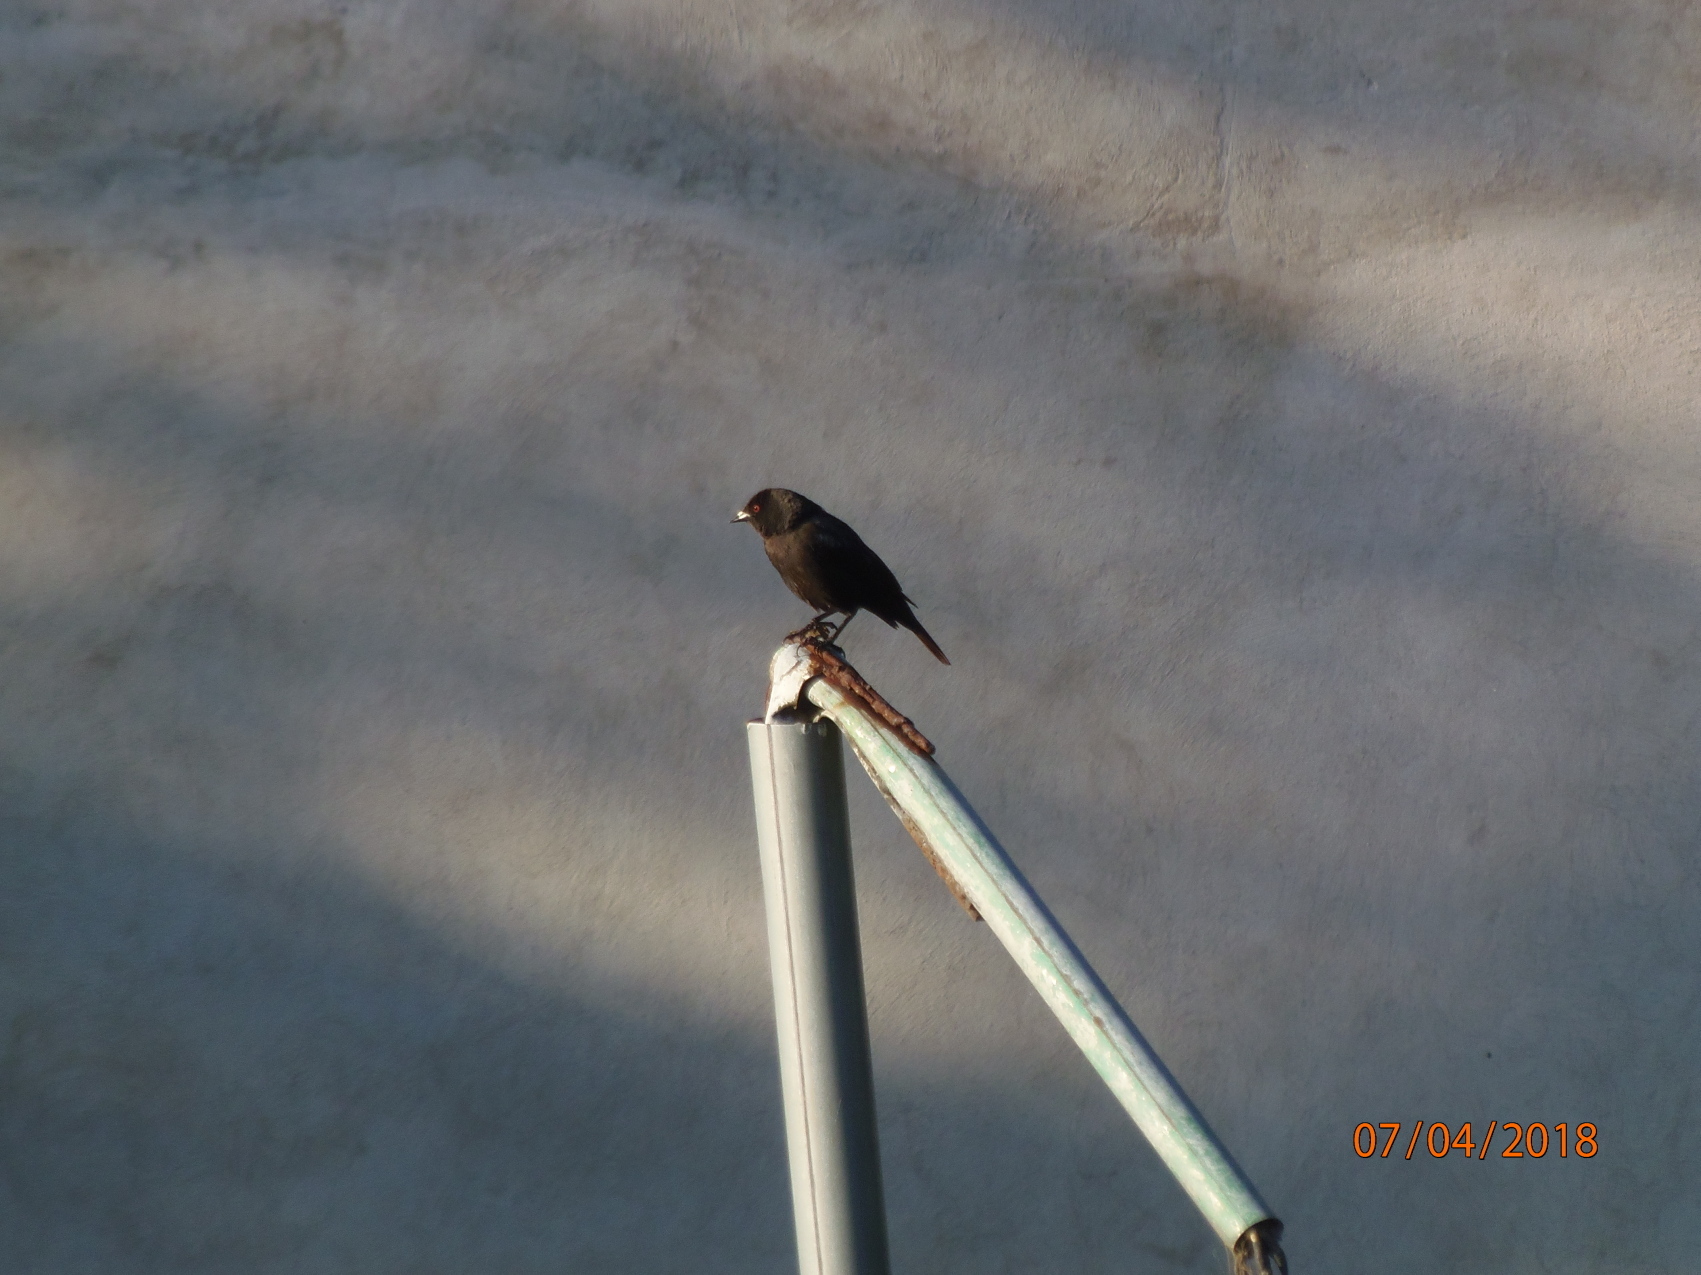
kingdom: Animalia
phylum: Chordata
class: Aves
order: Passeriformes
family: Icteridae
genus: Molothrus
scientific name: Molothrus aeneus
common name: Bronzed cowbird
